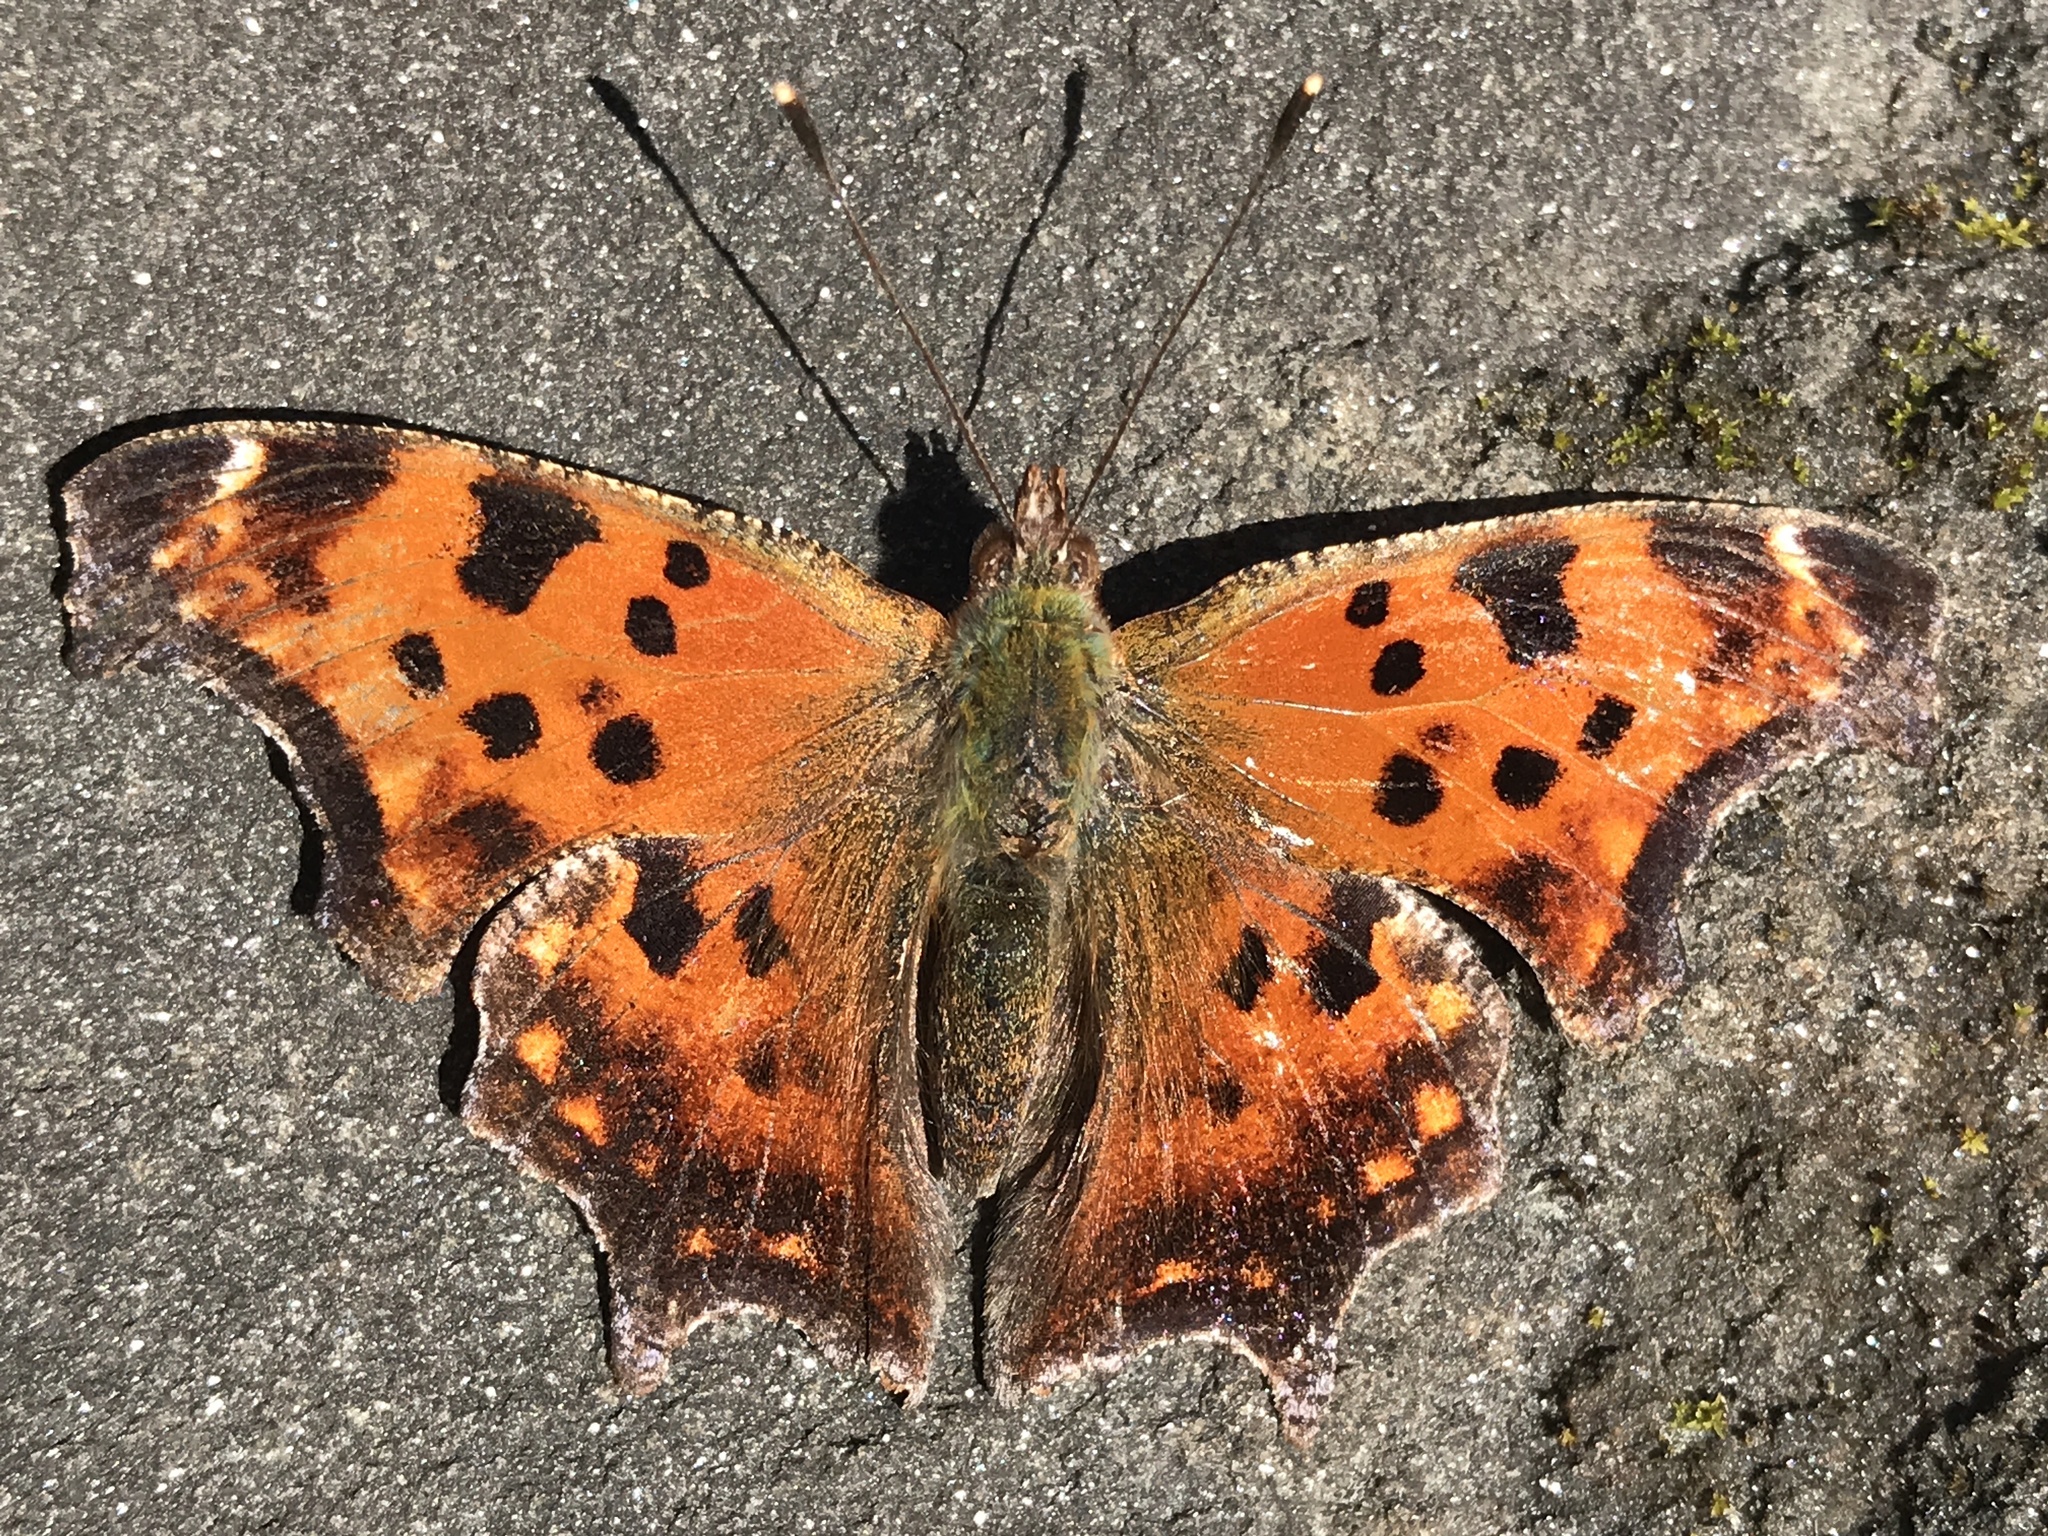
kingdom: Animalia
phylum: Arthropoda
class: Insecta
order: Lepidoptera
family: Nymphalidae
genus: Polygonia
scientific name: Polygonia comma
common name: Eastern comma
